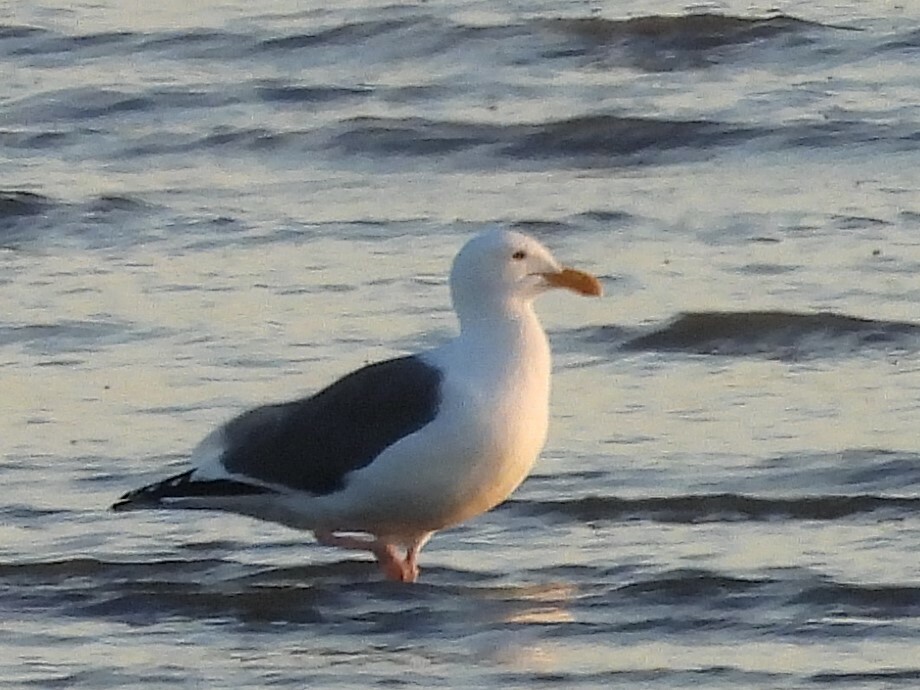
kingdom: Animalia
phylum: Chordata
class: Aves
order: Charadriiformes
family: Laridae
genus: Larus
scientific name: Larus occidentalis
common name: Western gull
